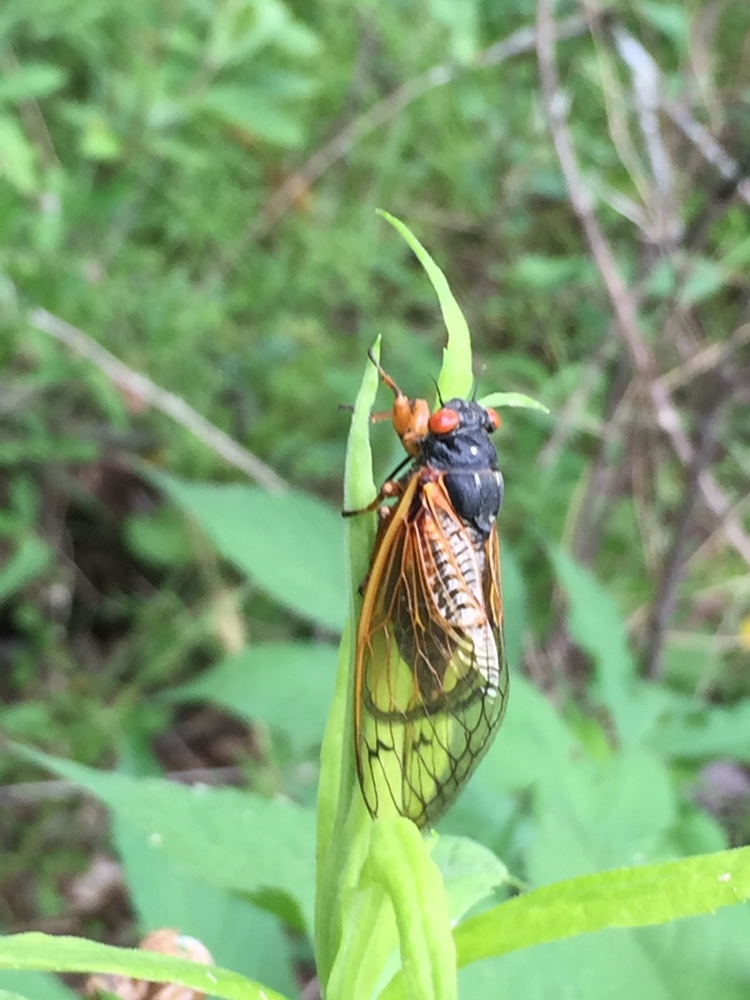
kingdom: Animalia
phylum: Arthropoda
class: Insecta
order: Hemiptera
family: Cicadidae
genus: Magicicada
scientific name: Magicicada
